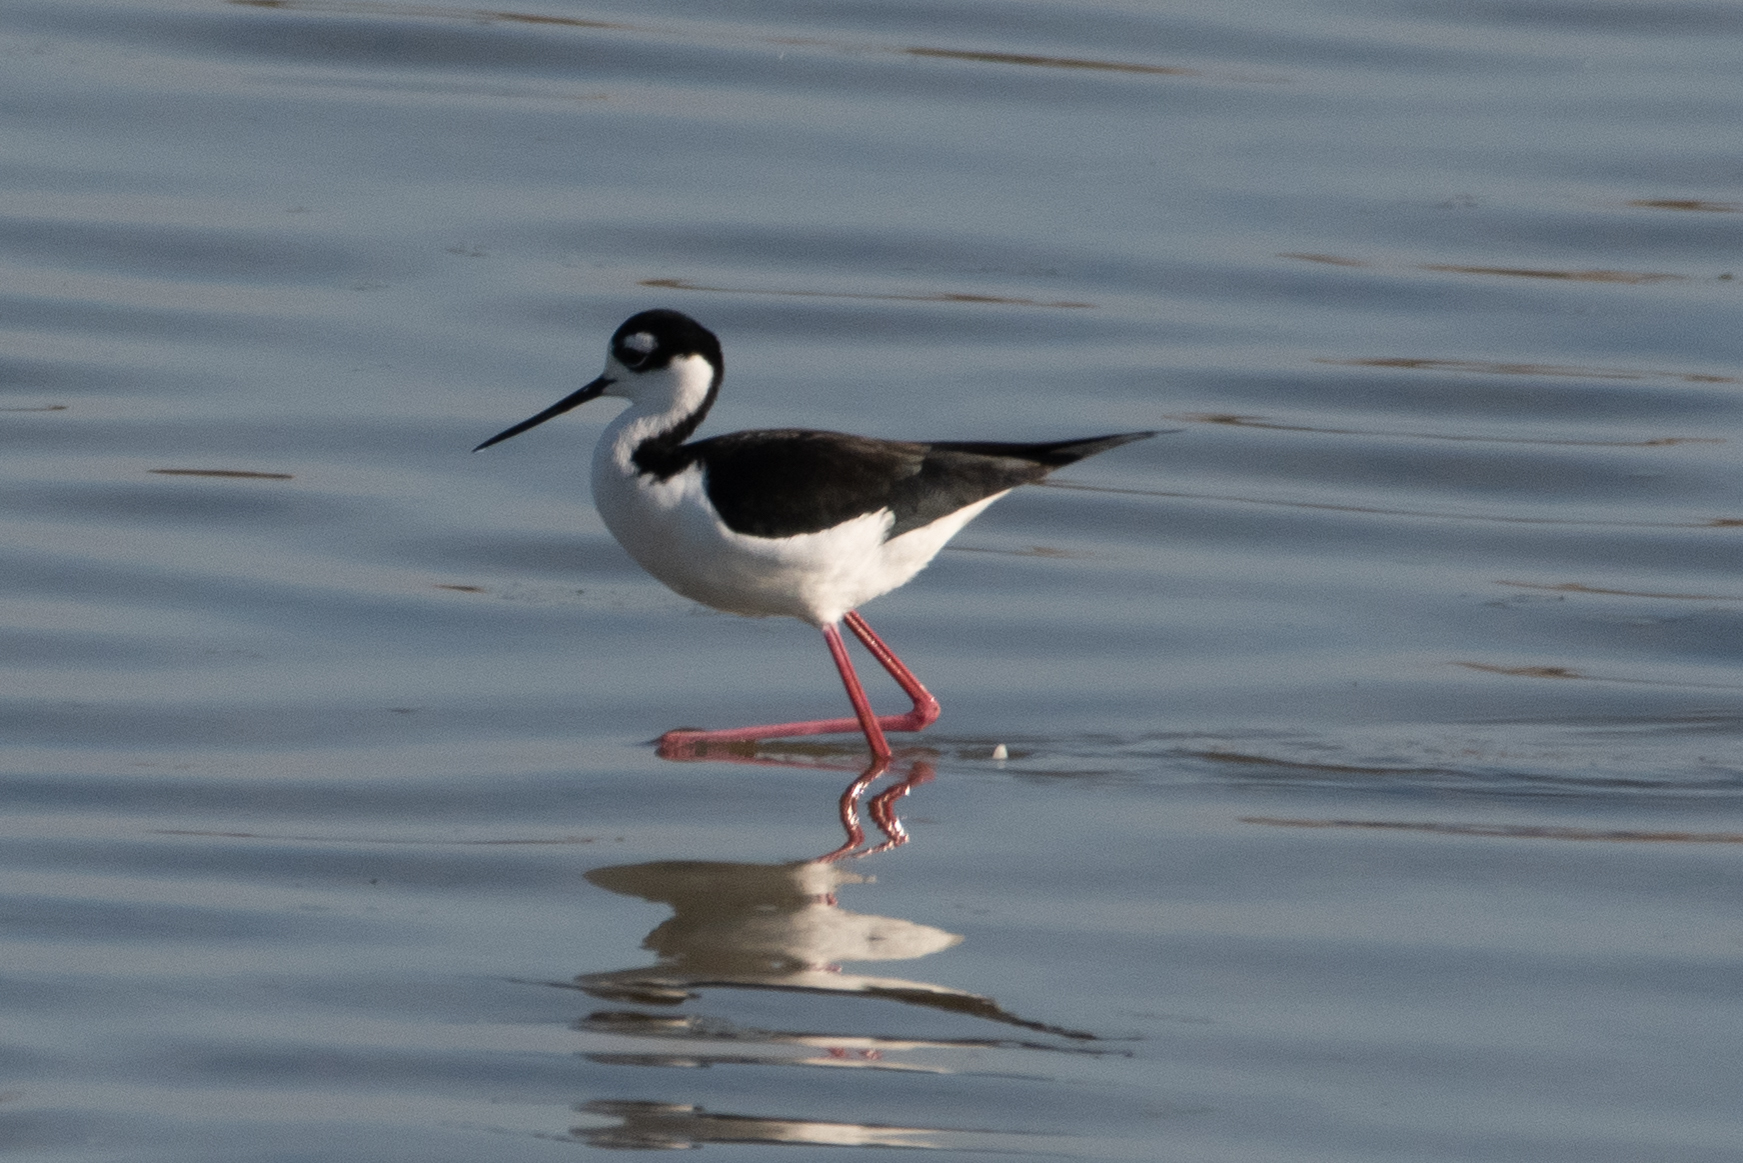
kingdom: Animalia
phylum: Chordata
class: Aves
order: Charadriiformes
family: Recurvirostridae
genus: Himantopus
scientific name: Himantopus mexicanus
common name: Black-necked stilt
